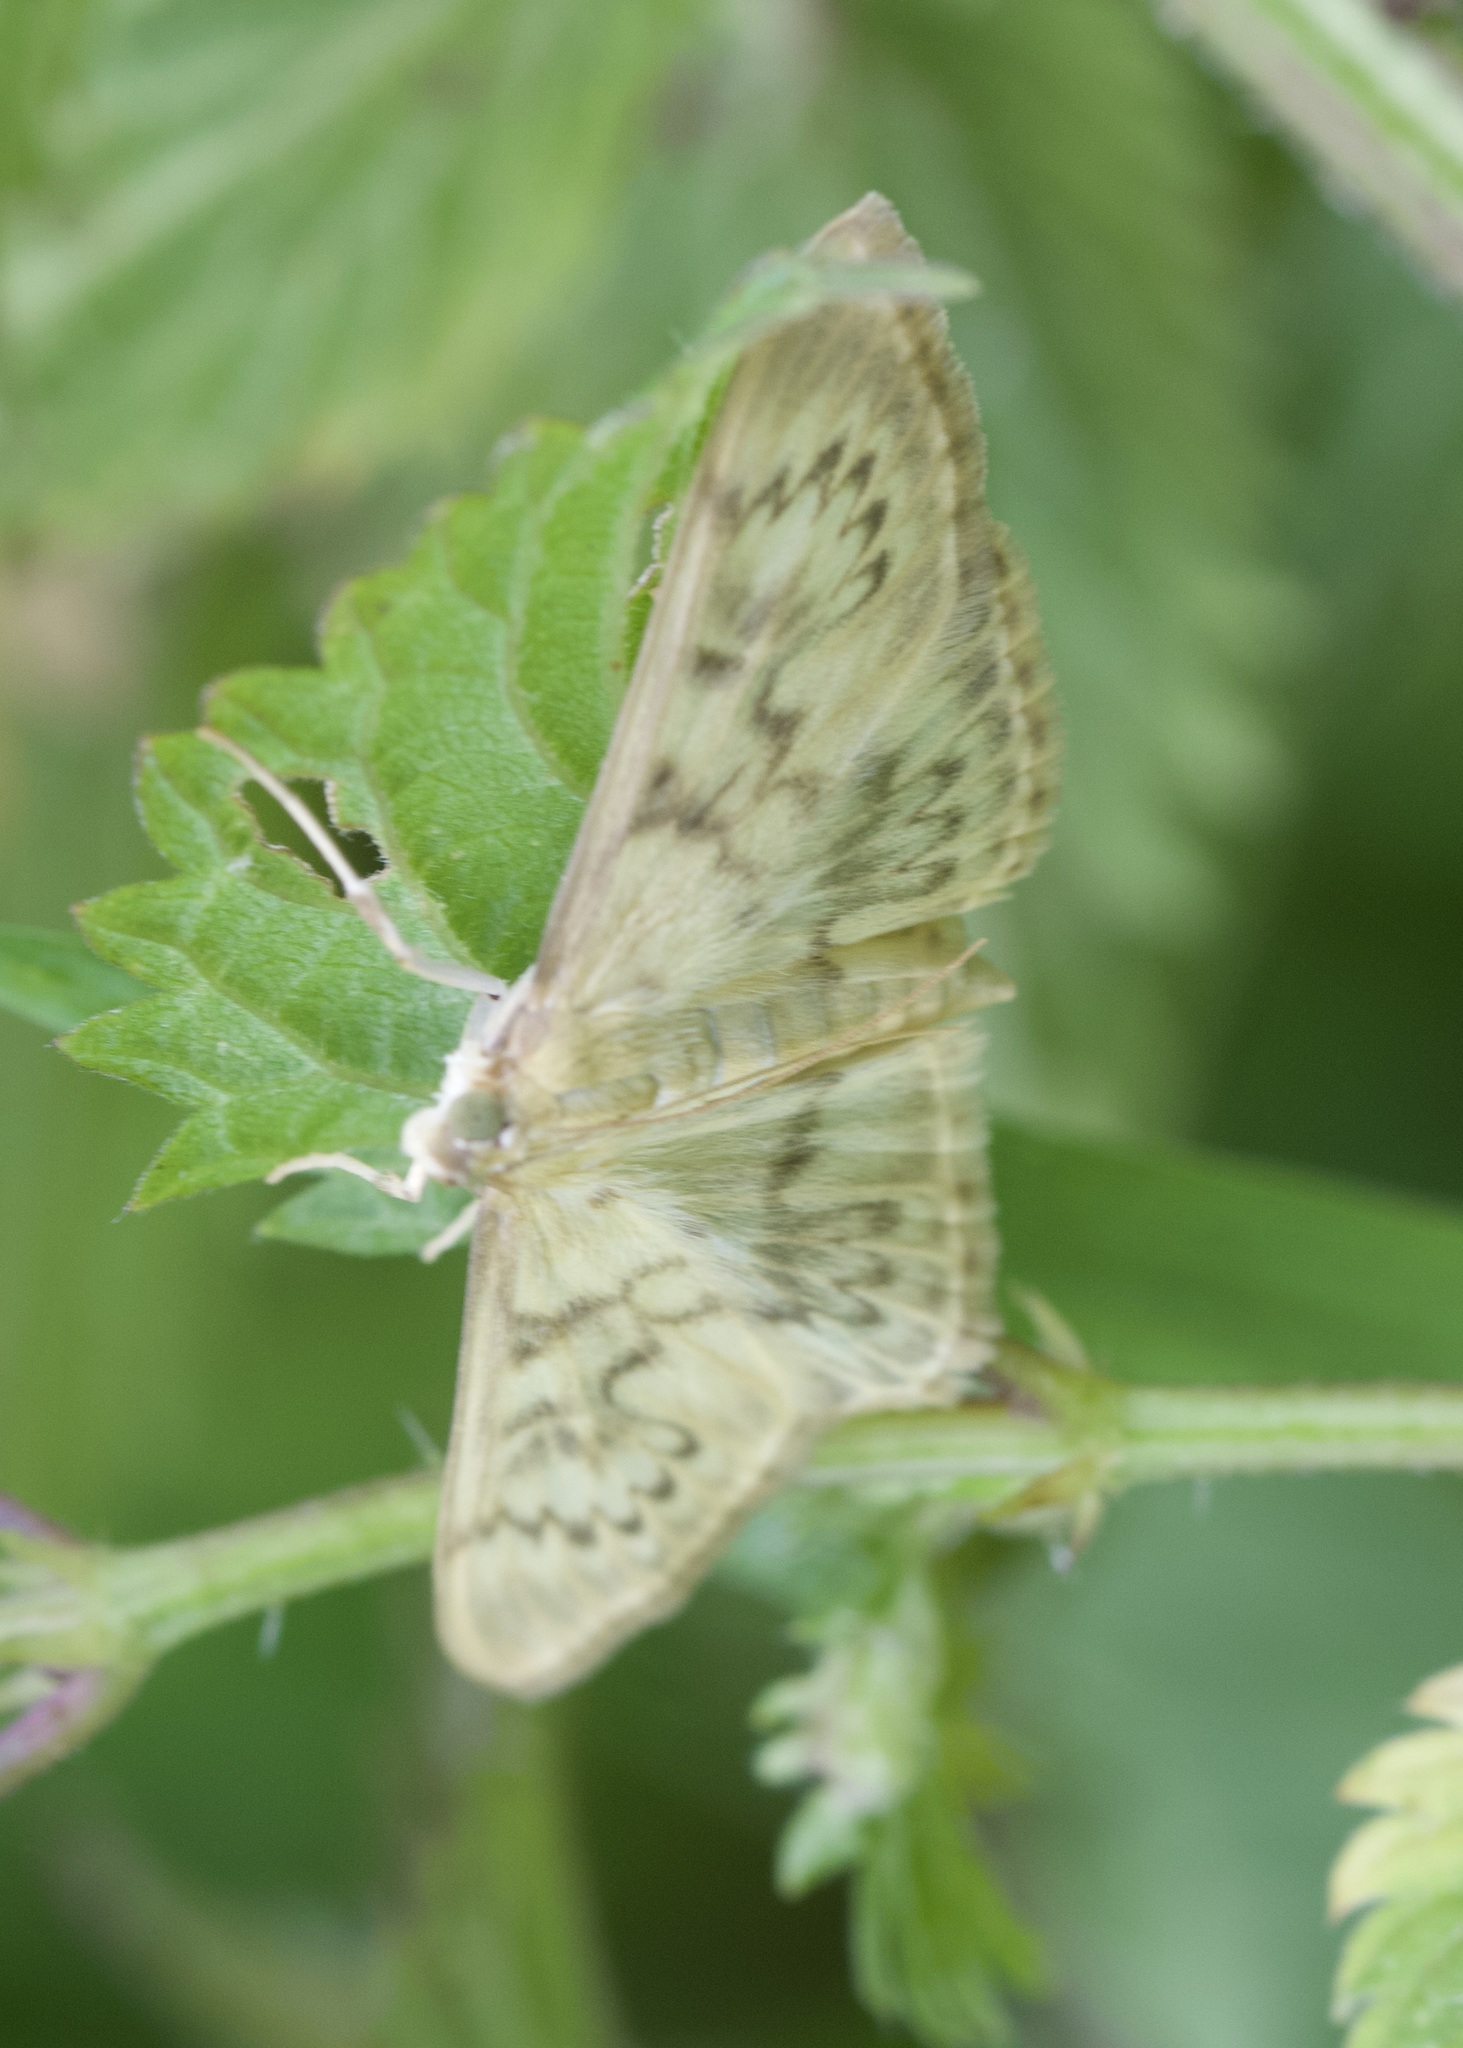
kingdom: Animalia
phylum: Arthropoda
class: Insecta
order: Lepidoptera
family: Crambidae
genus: Patania
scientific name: Patania ruralis
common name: Mother of pearl
